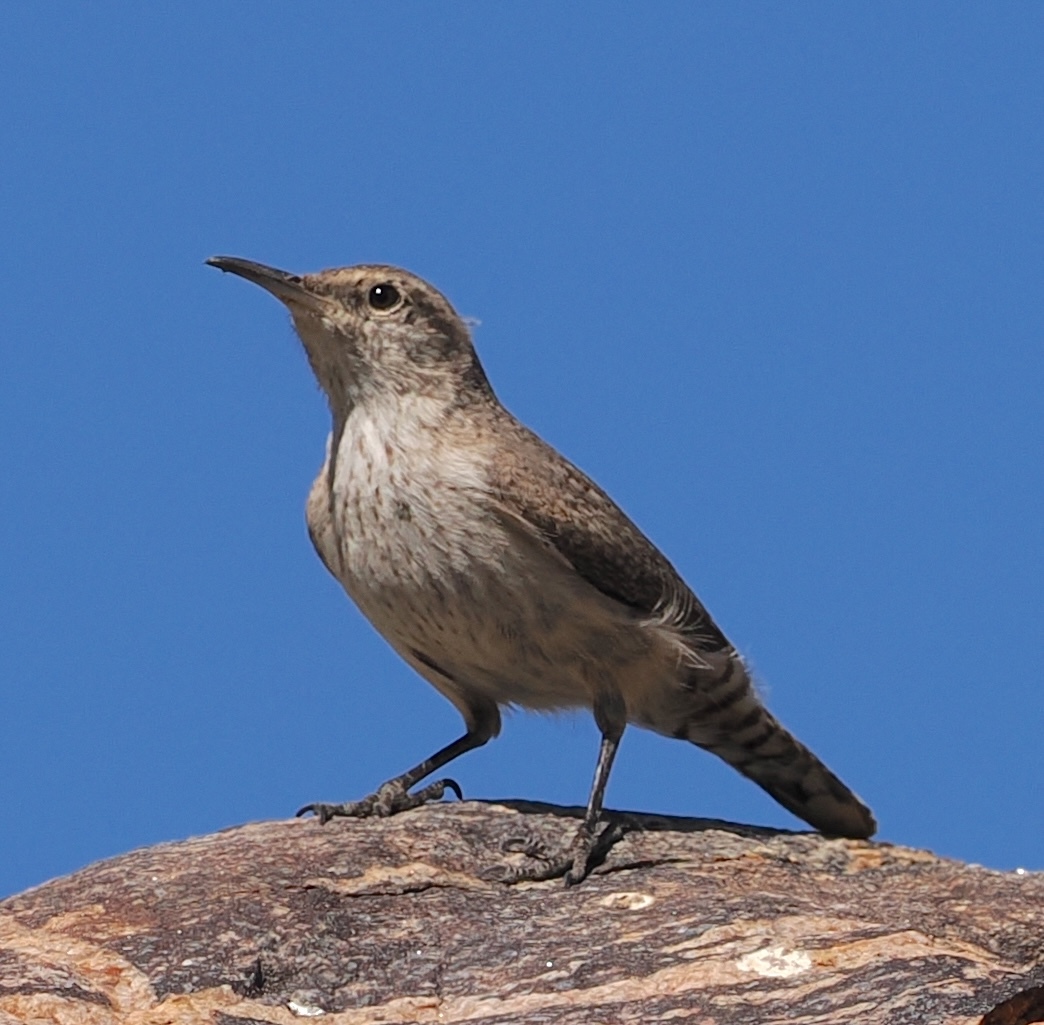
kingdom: Animalia
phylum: Chordata
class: Aves
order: Passeriformes
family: Troglodytidae
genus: Salpinctes
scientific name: Salpinctes obsoletus
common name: Rock wren
